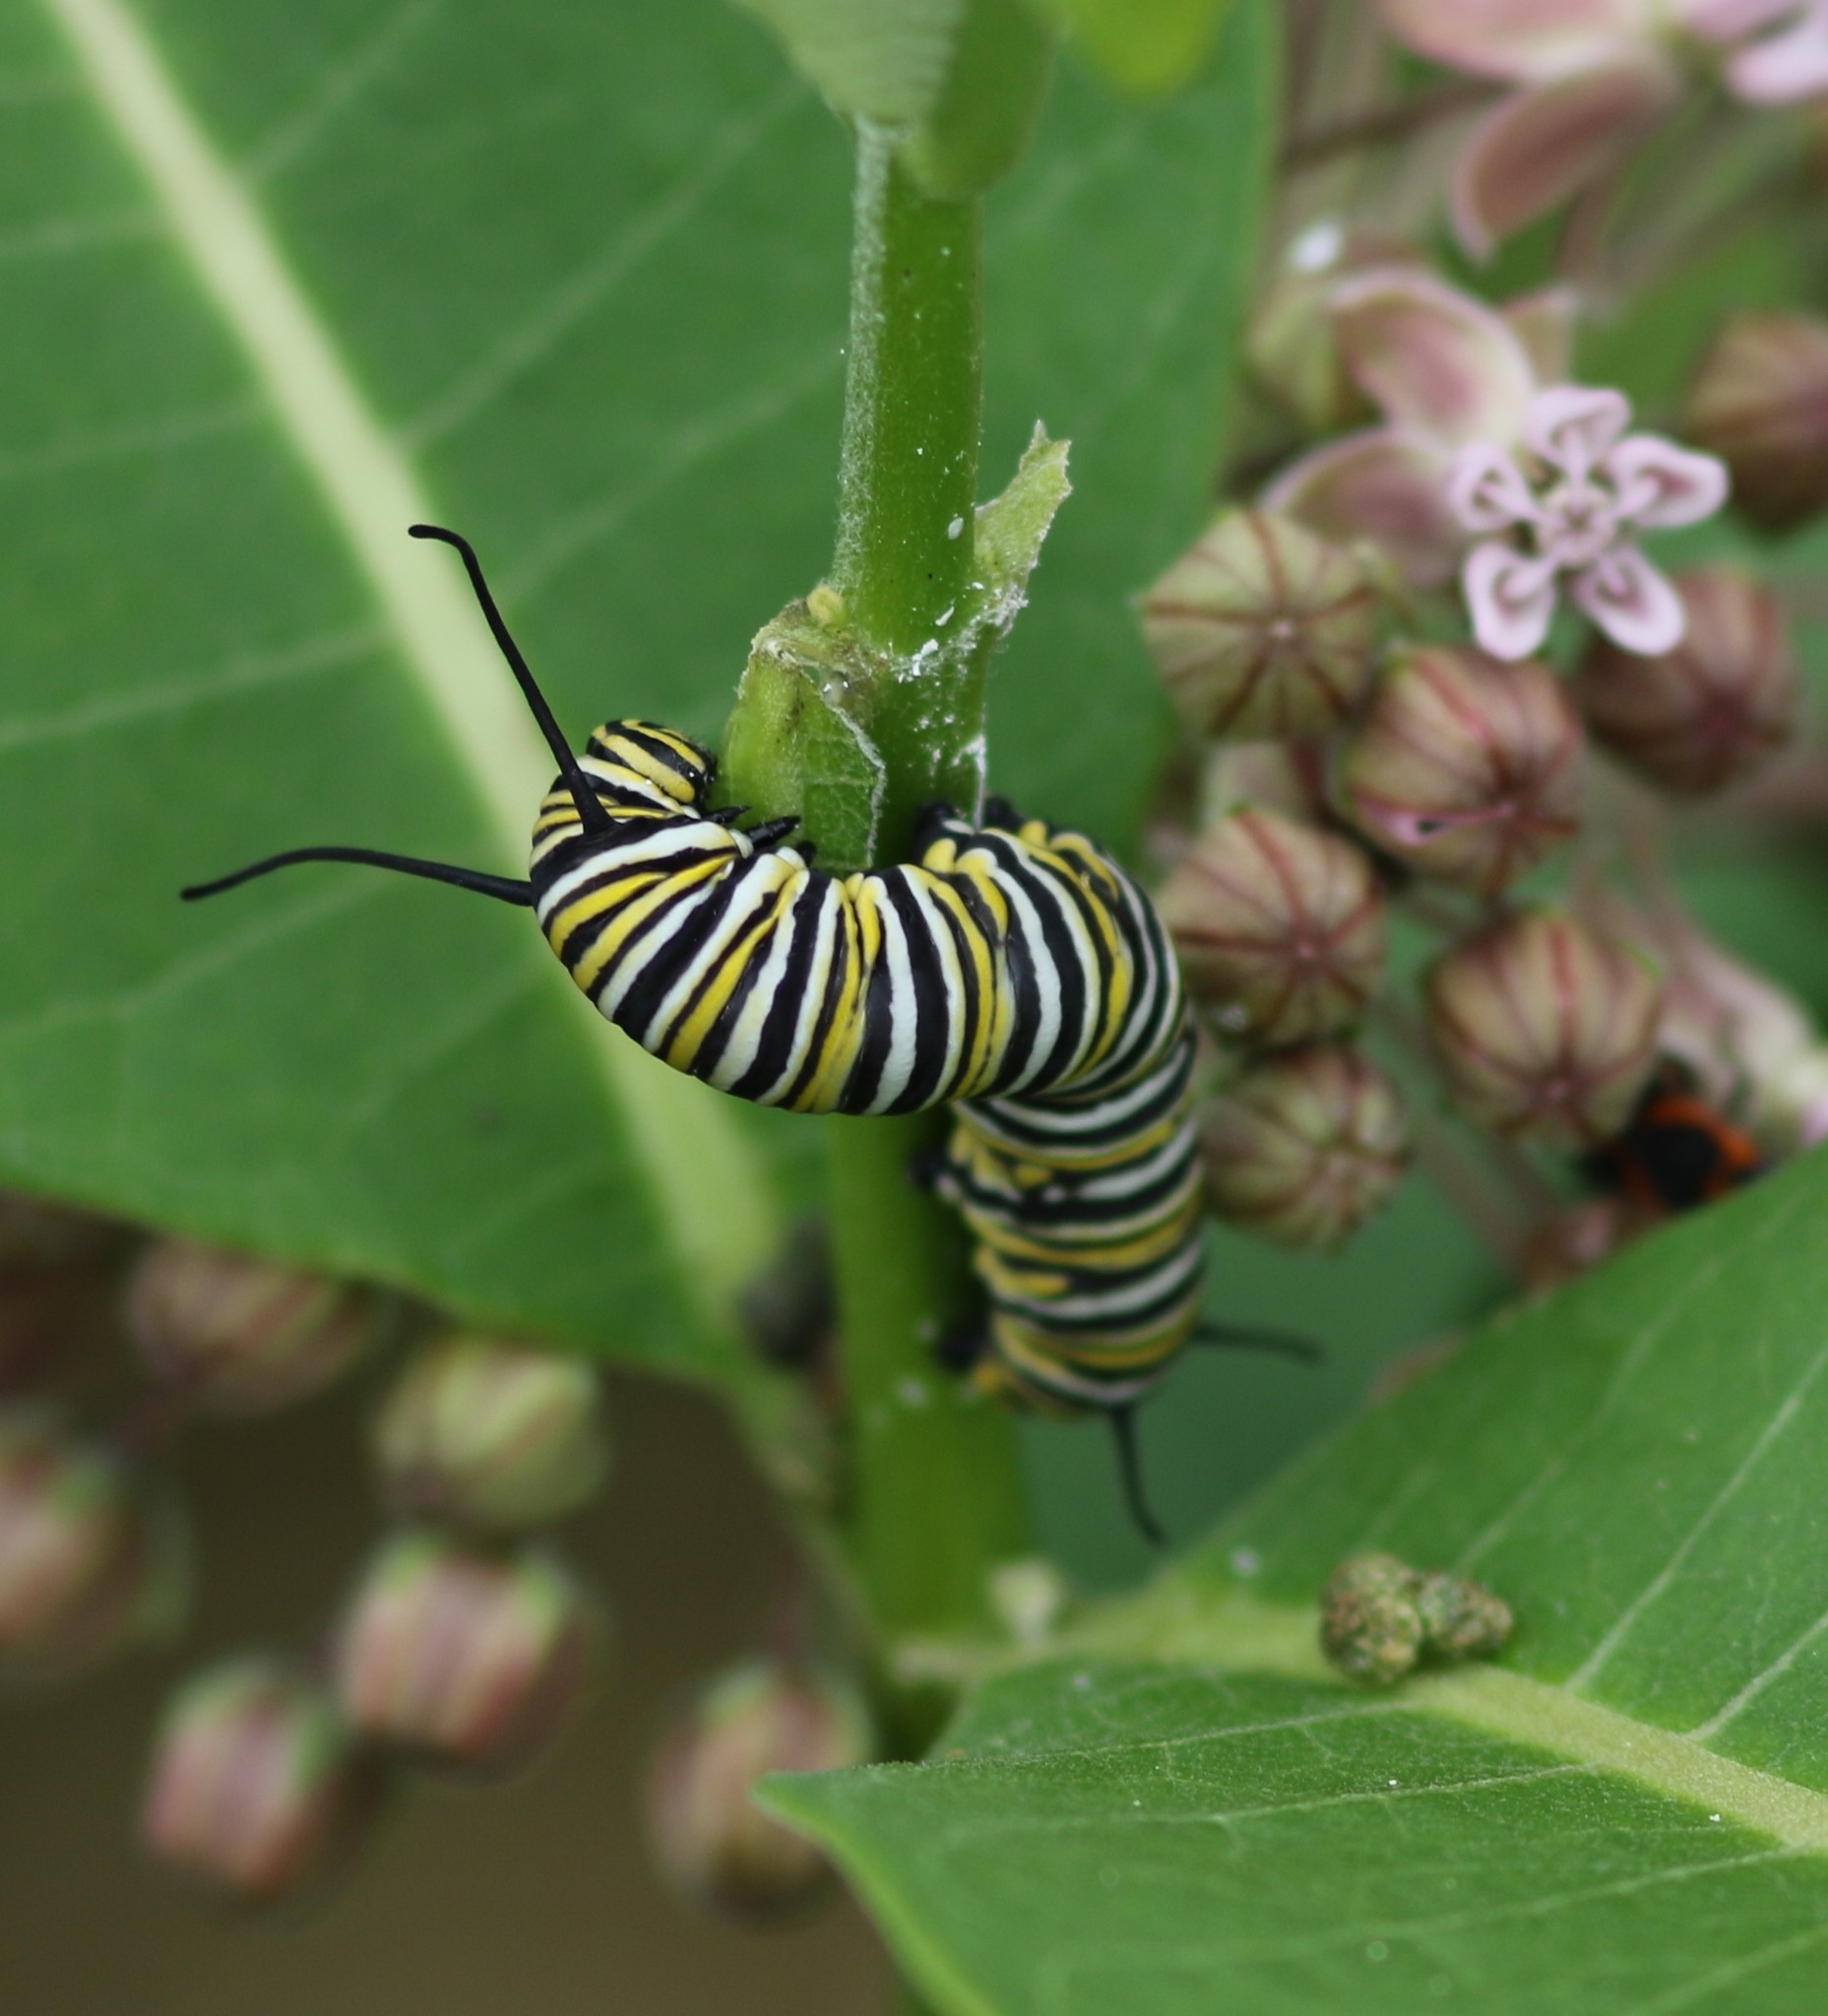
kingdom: Animalia
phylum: Arthropoda
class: Insecta
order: Lepidoptera
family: Nymphalidae
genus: Danaus
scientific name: Danaus plexippus
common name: Monarch
